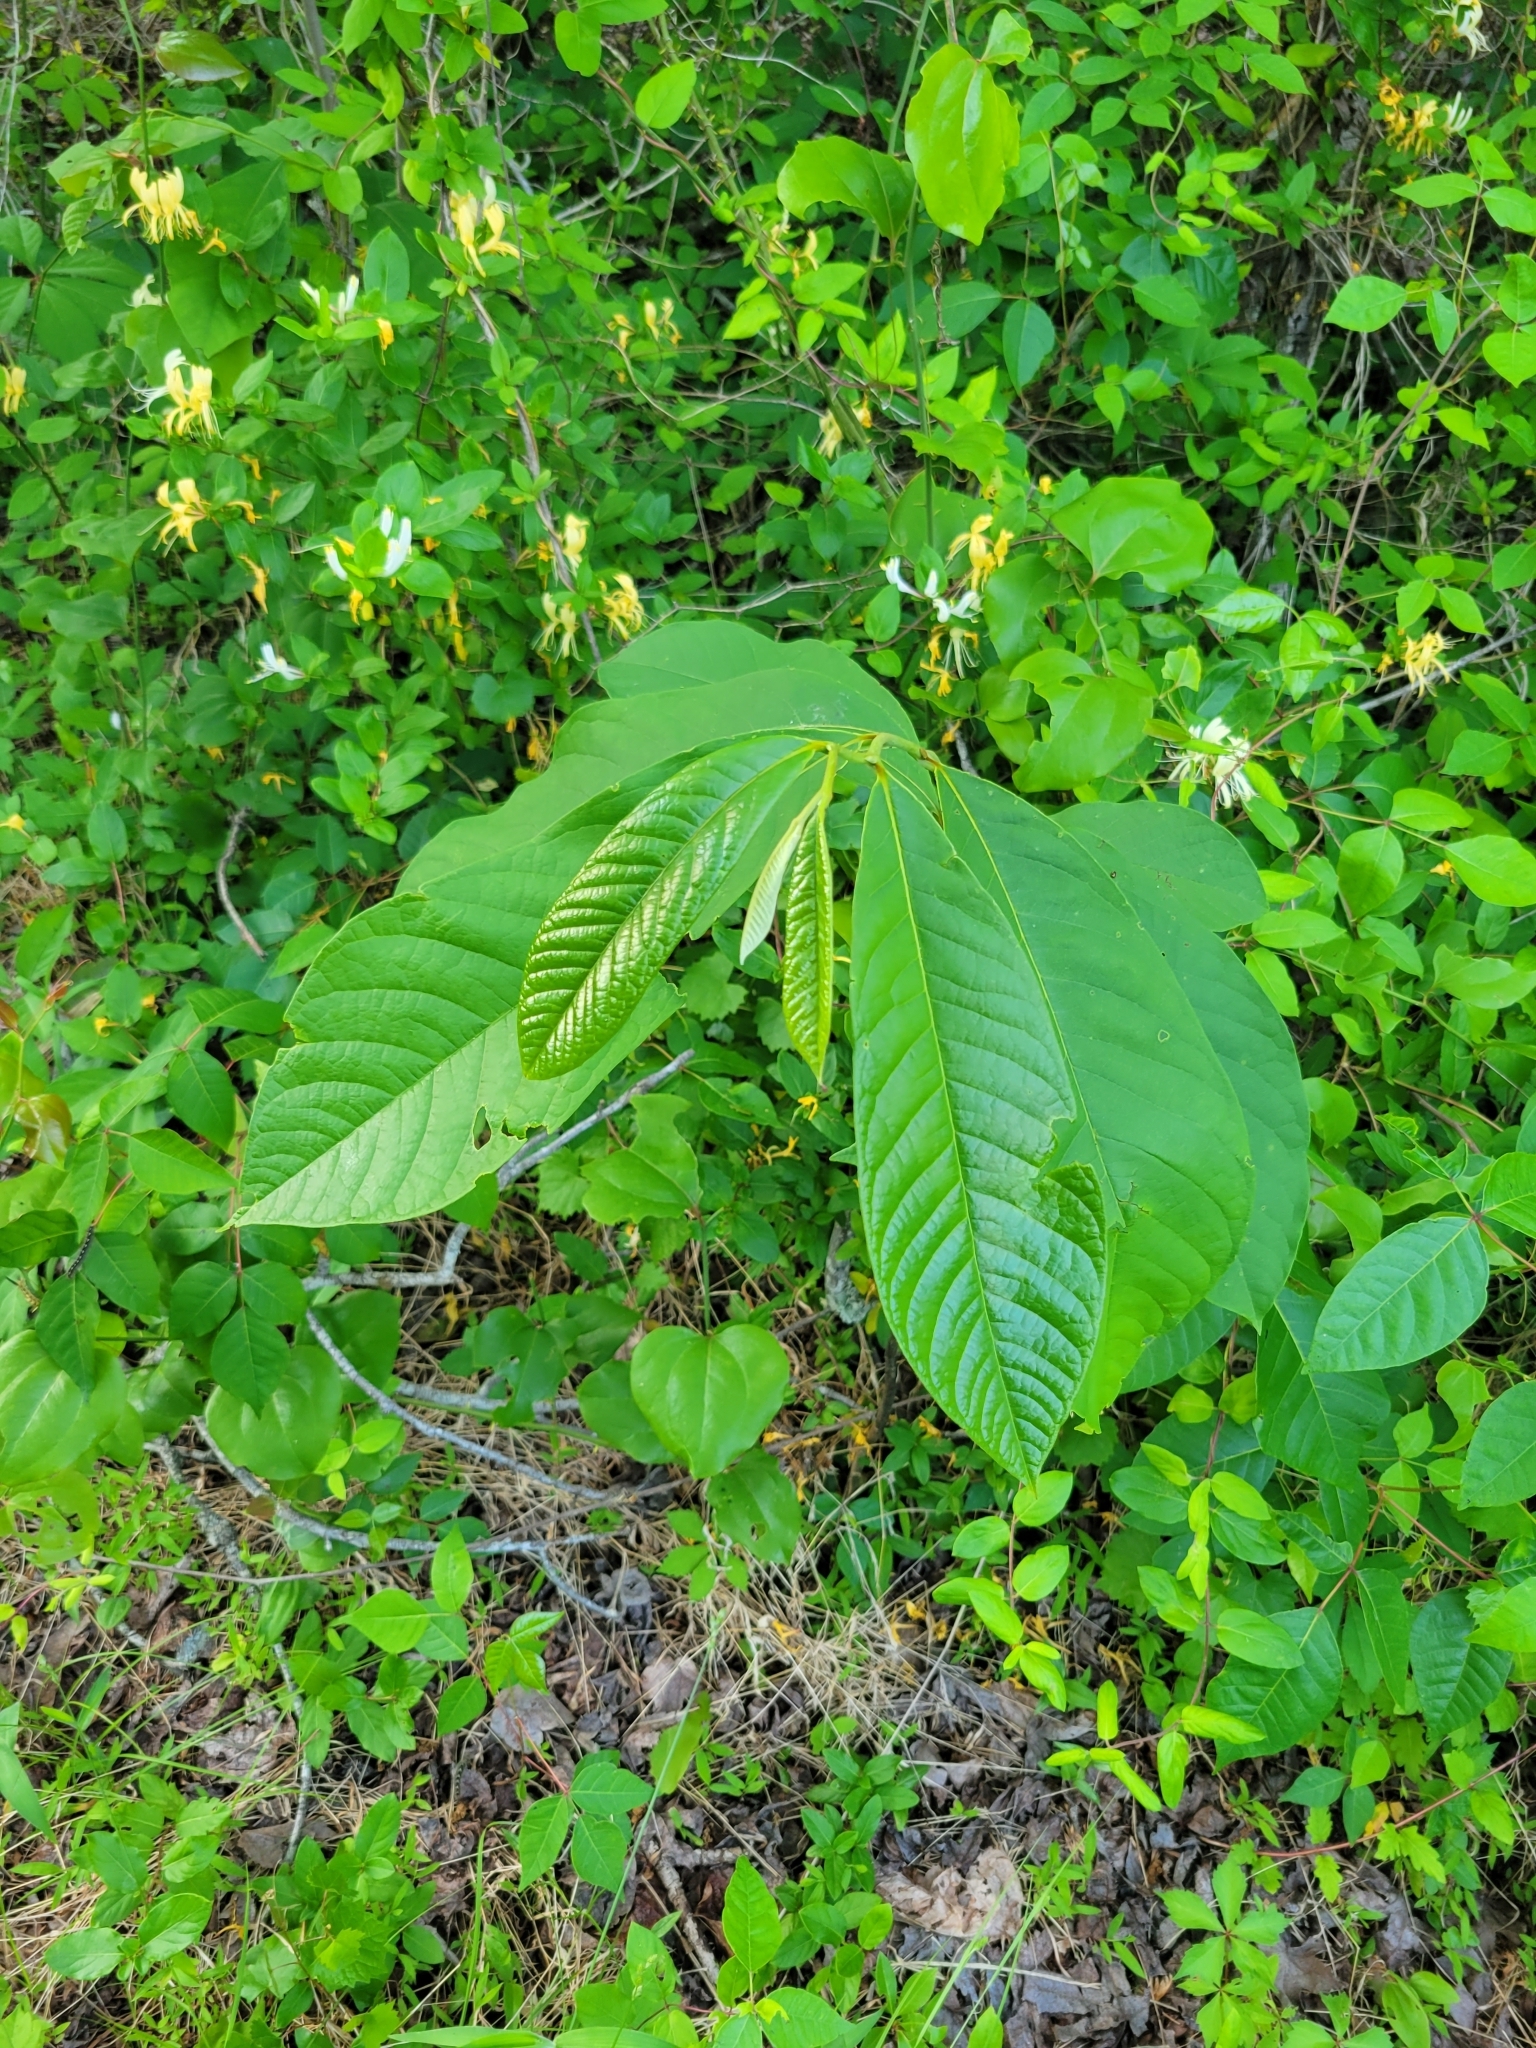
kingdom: Plantae
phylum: Tracheophyta
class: Magnoliopsida
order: Magnoliales
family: Annonaceae
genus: Asimina
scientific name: Asimina triloba
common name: Dog-banana
